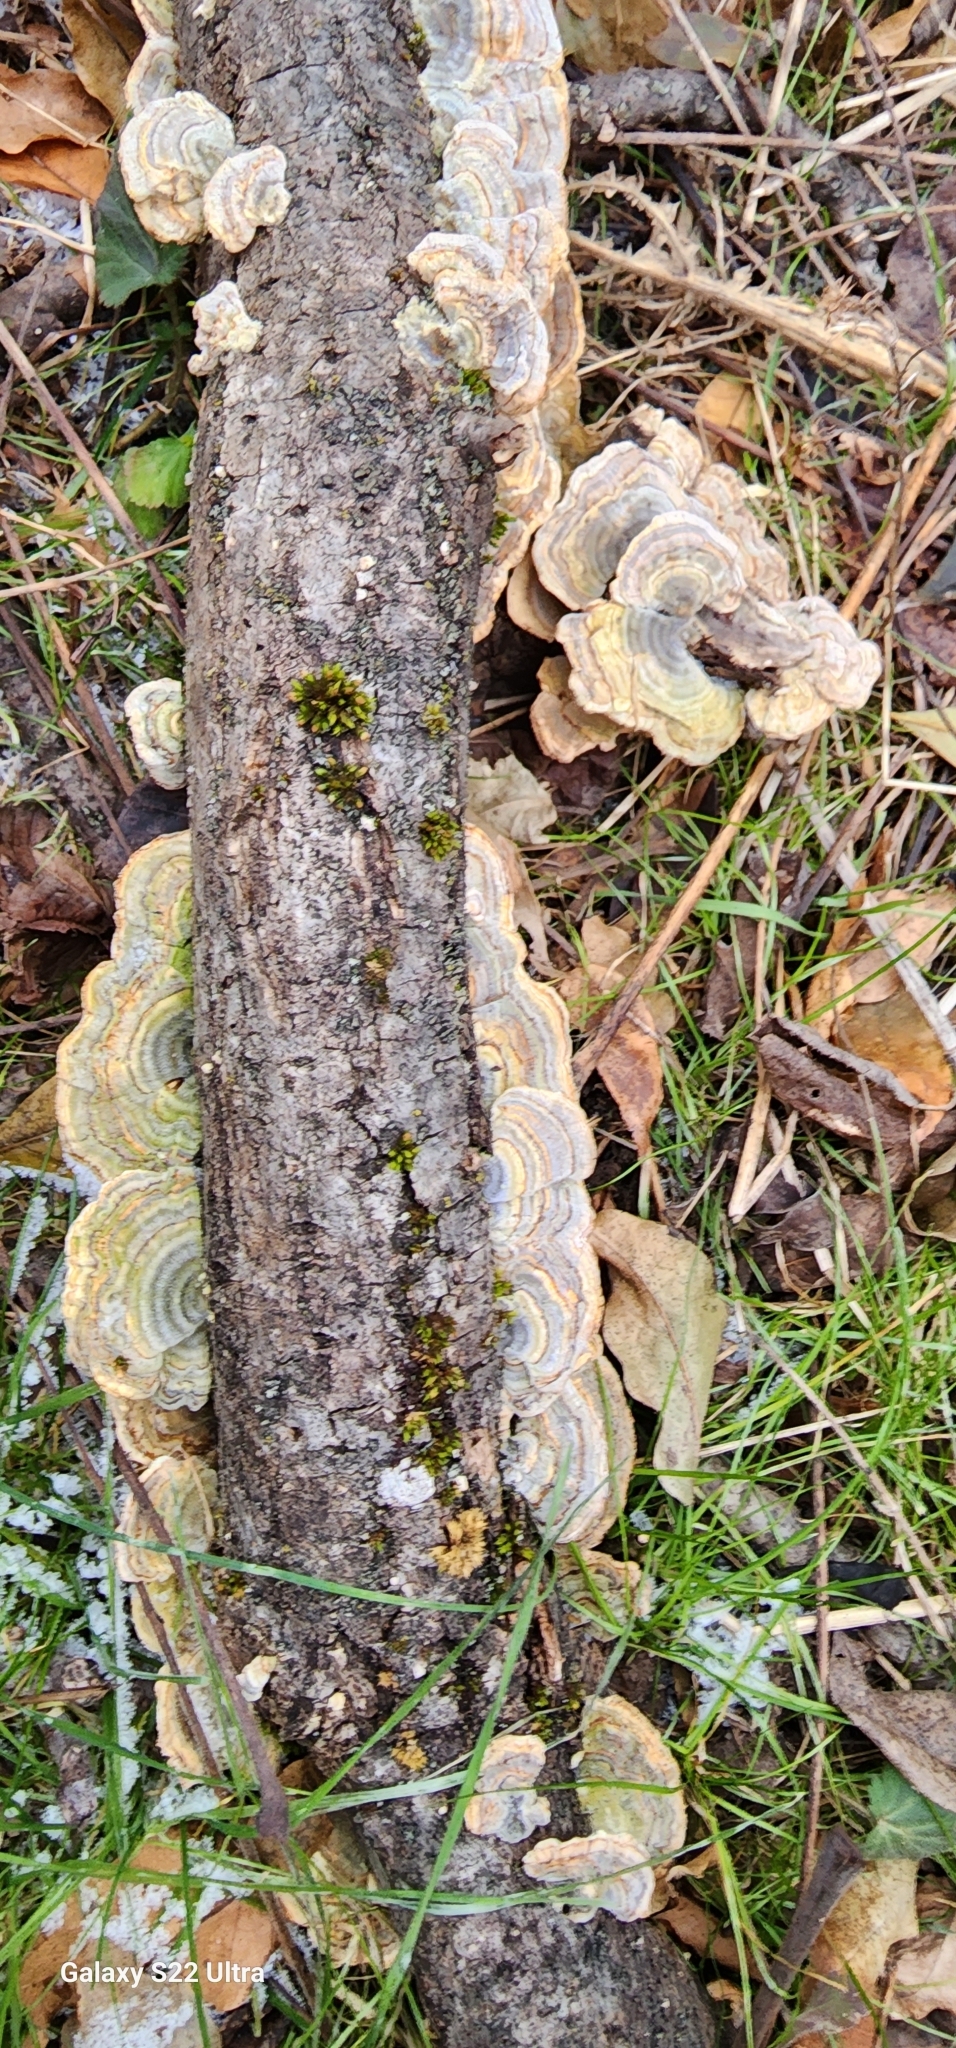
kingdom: Fungi
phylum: Basidiomycota
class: Agaricomycetes
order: Polyporales
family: Polyporaceae
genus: Trametes
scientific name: Trametes versicolor
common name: Turkeytail
